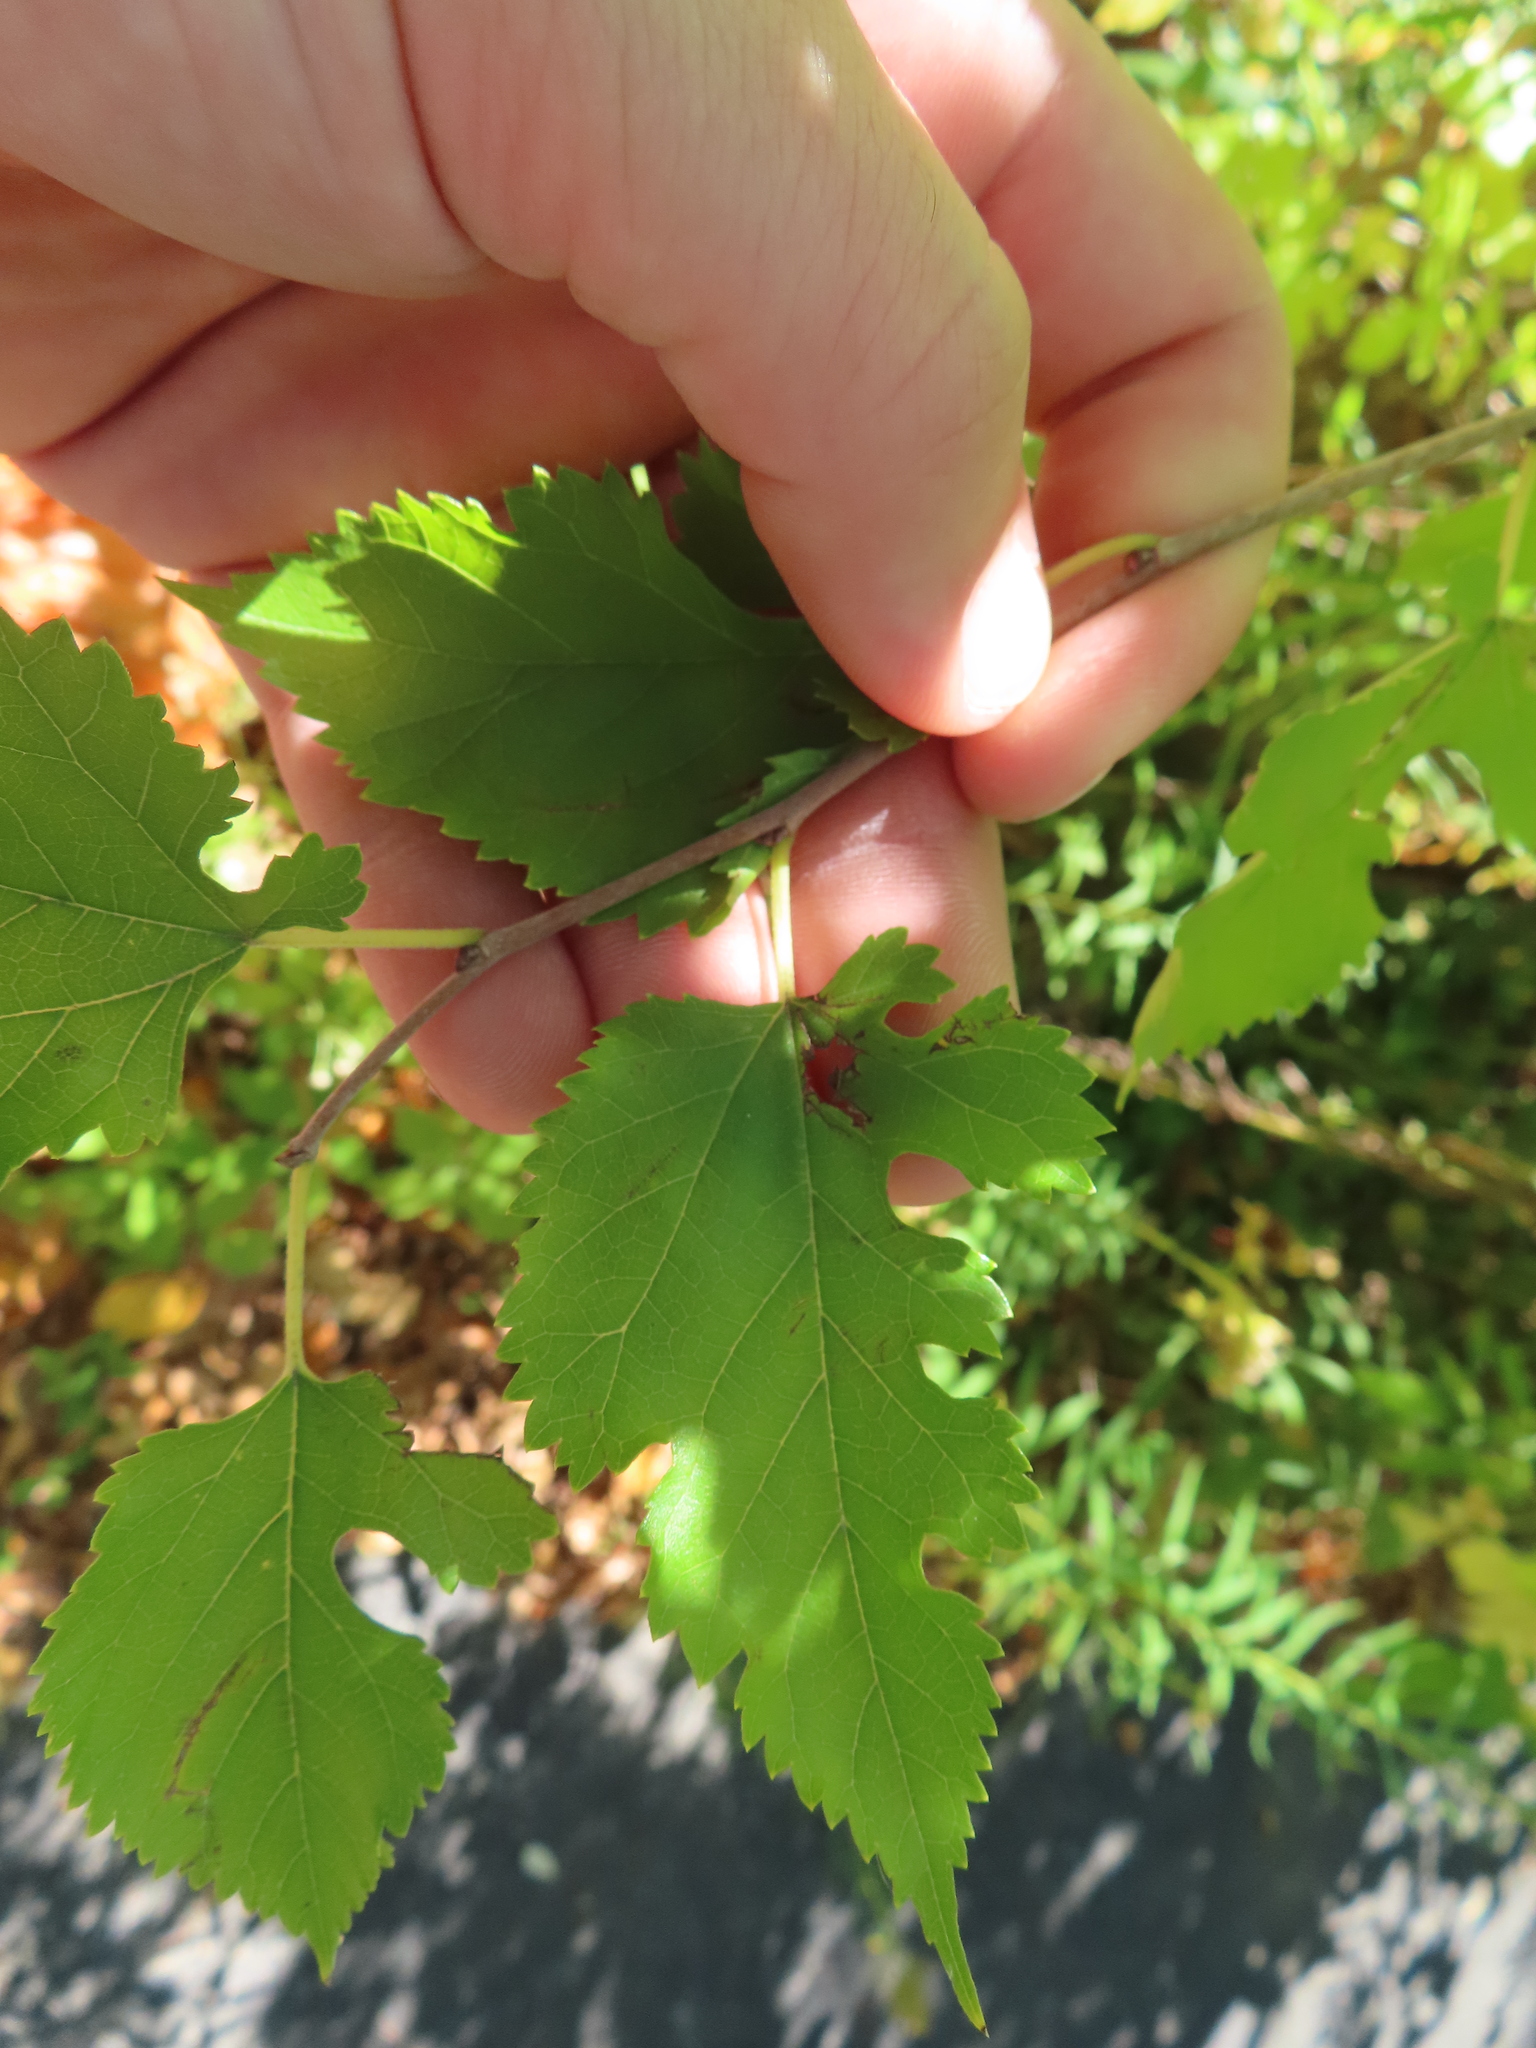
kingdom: Plantae
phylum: Tracheophyta
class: Magnoliopsida
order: Rosales
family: Moraceae
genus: Morus
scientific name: Morus alba
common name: White mulberry
